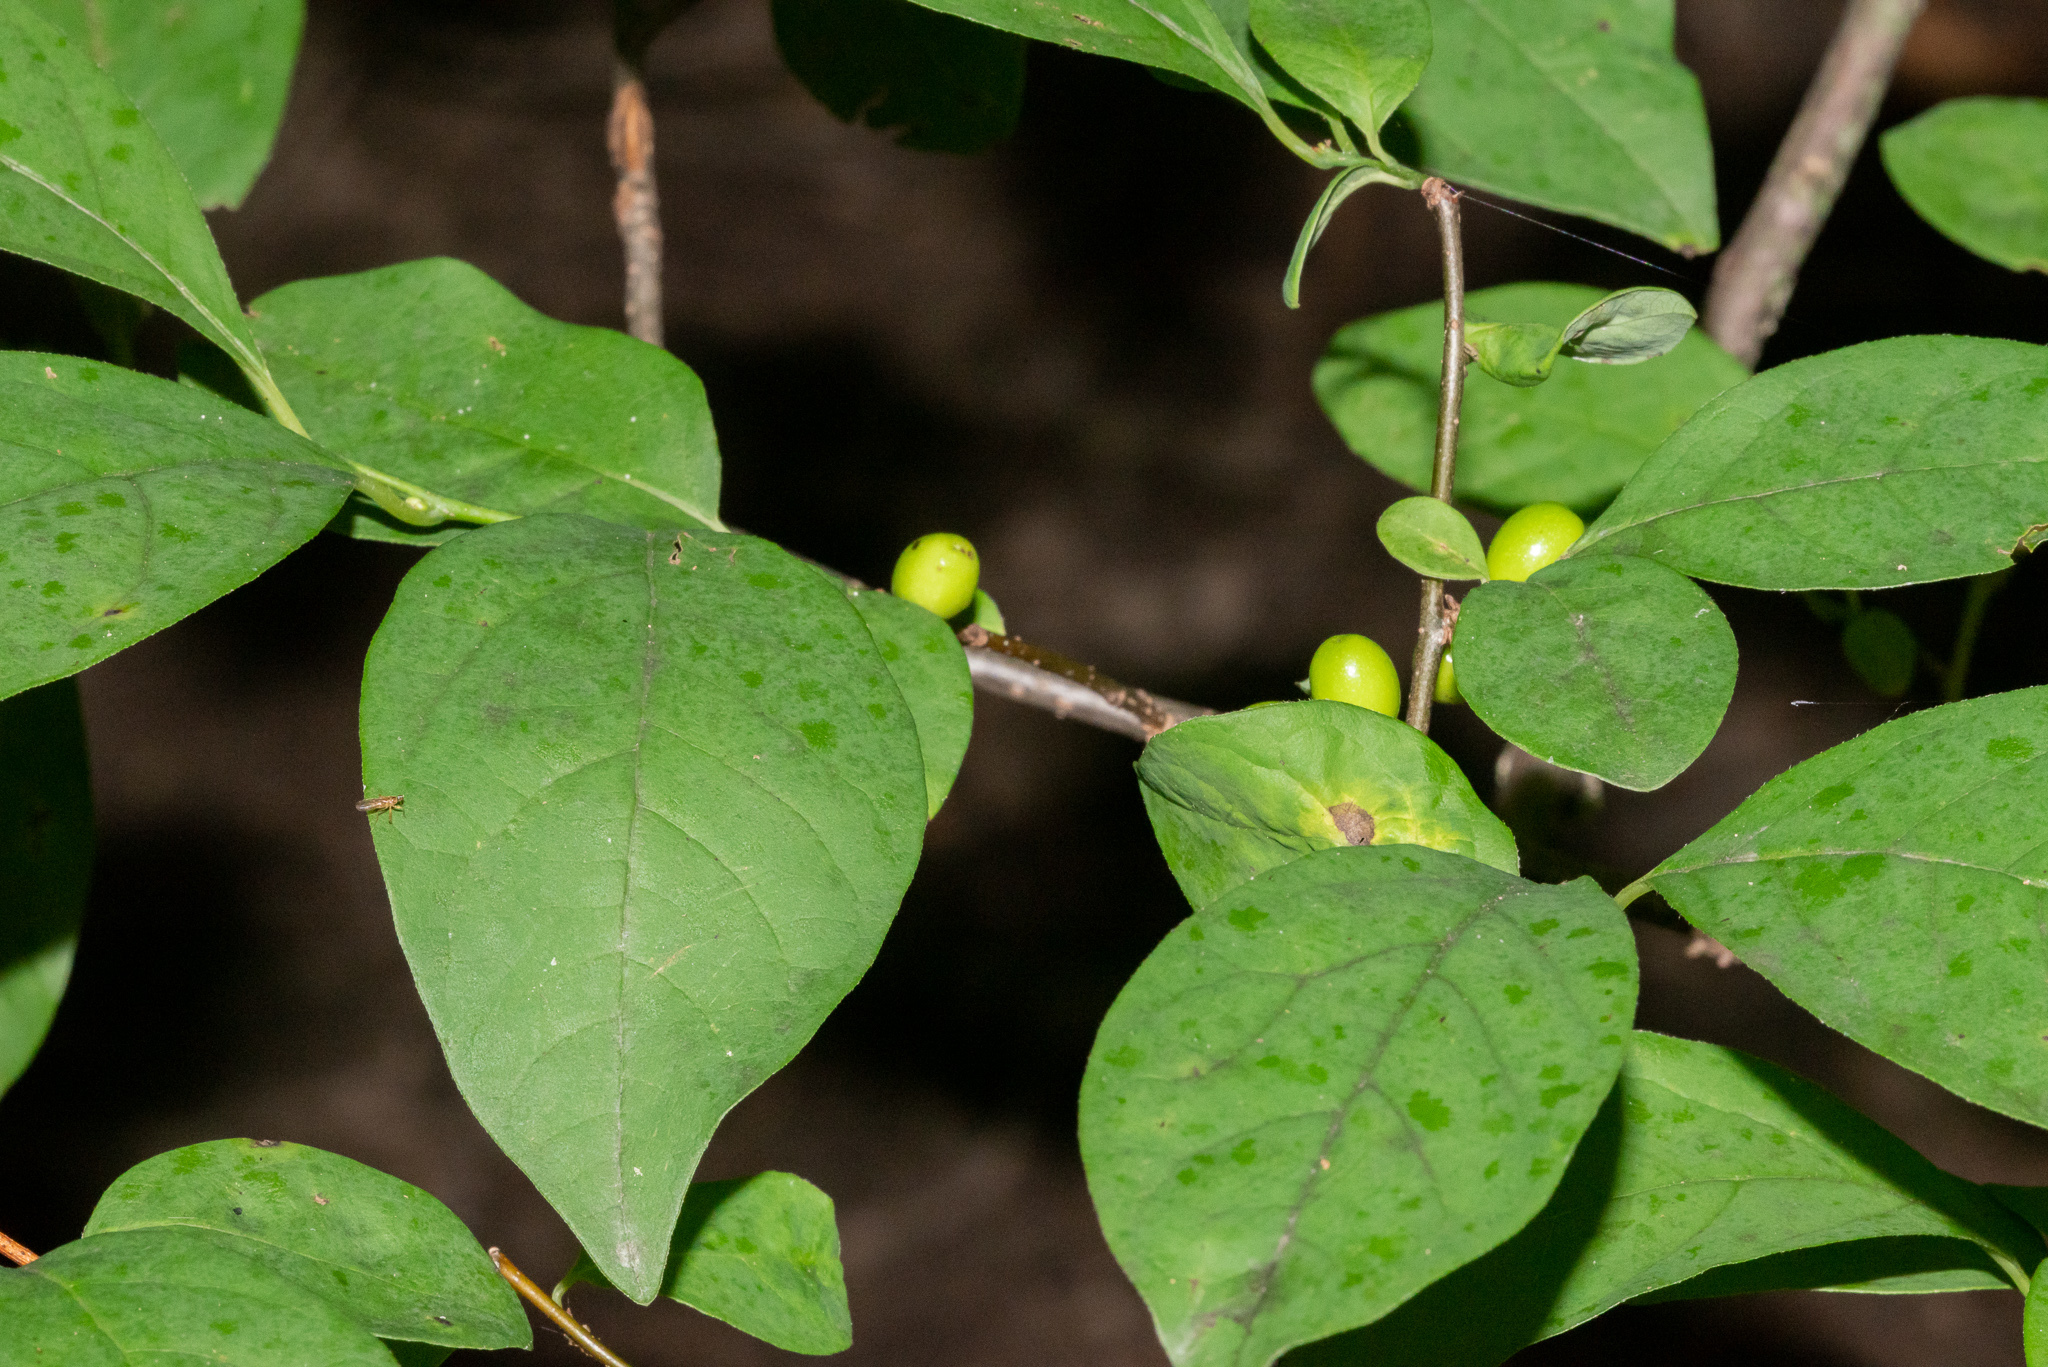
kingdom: Plantae
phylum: Tracheophyta
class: Magnoliopsida
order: Laurales
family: Lauraceae
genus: Lindera
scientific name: Lindera benzoin
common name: Spicebush
